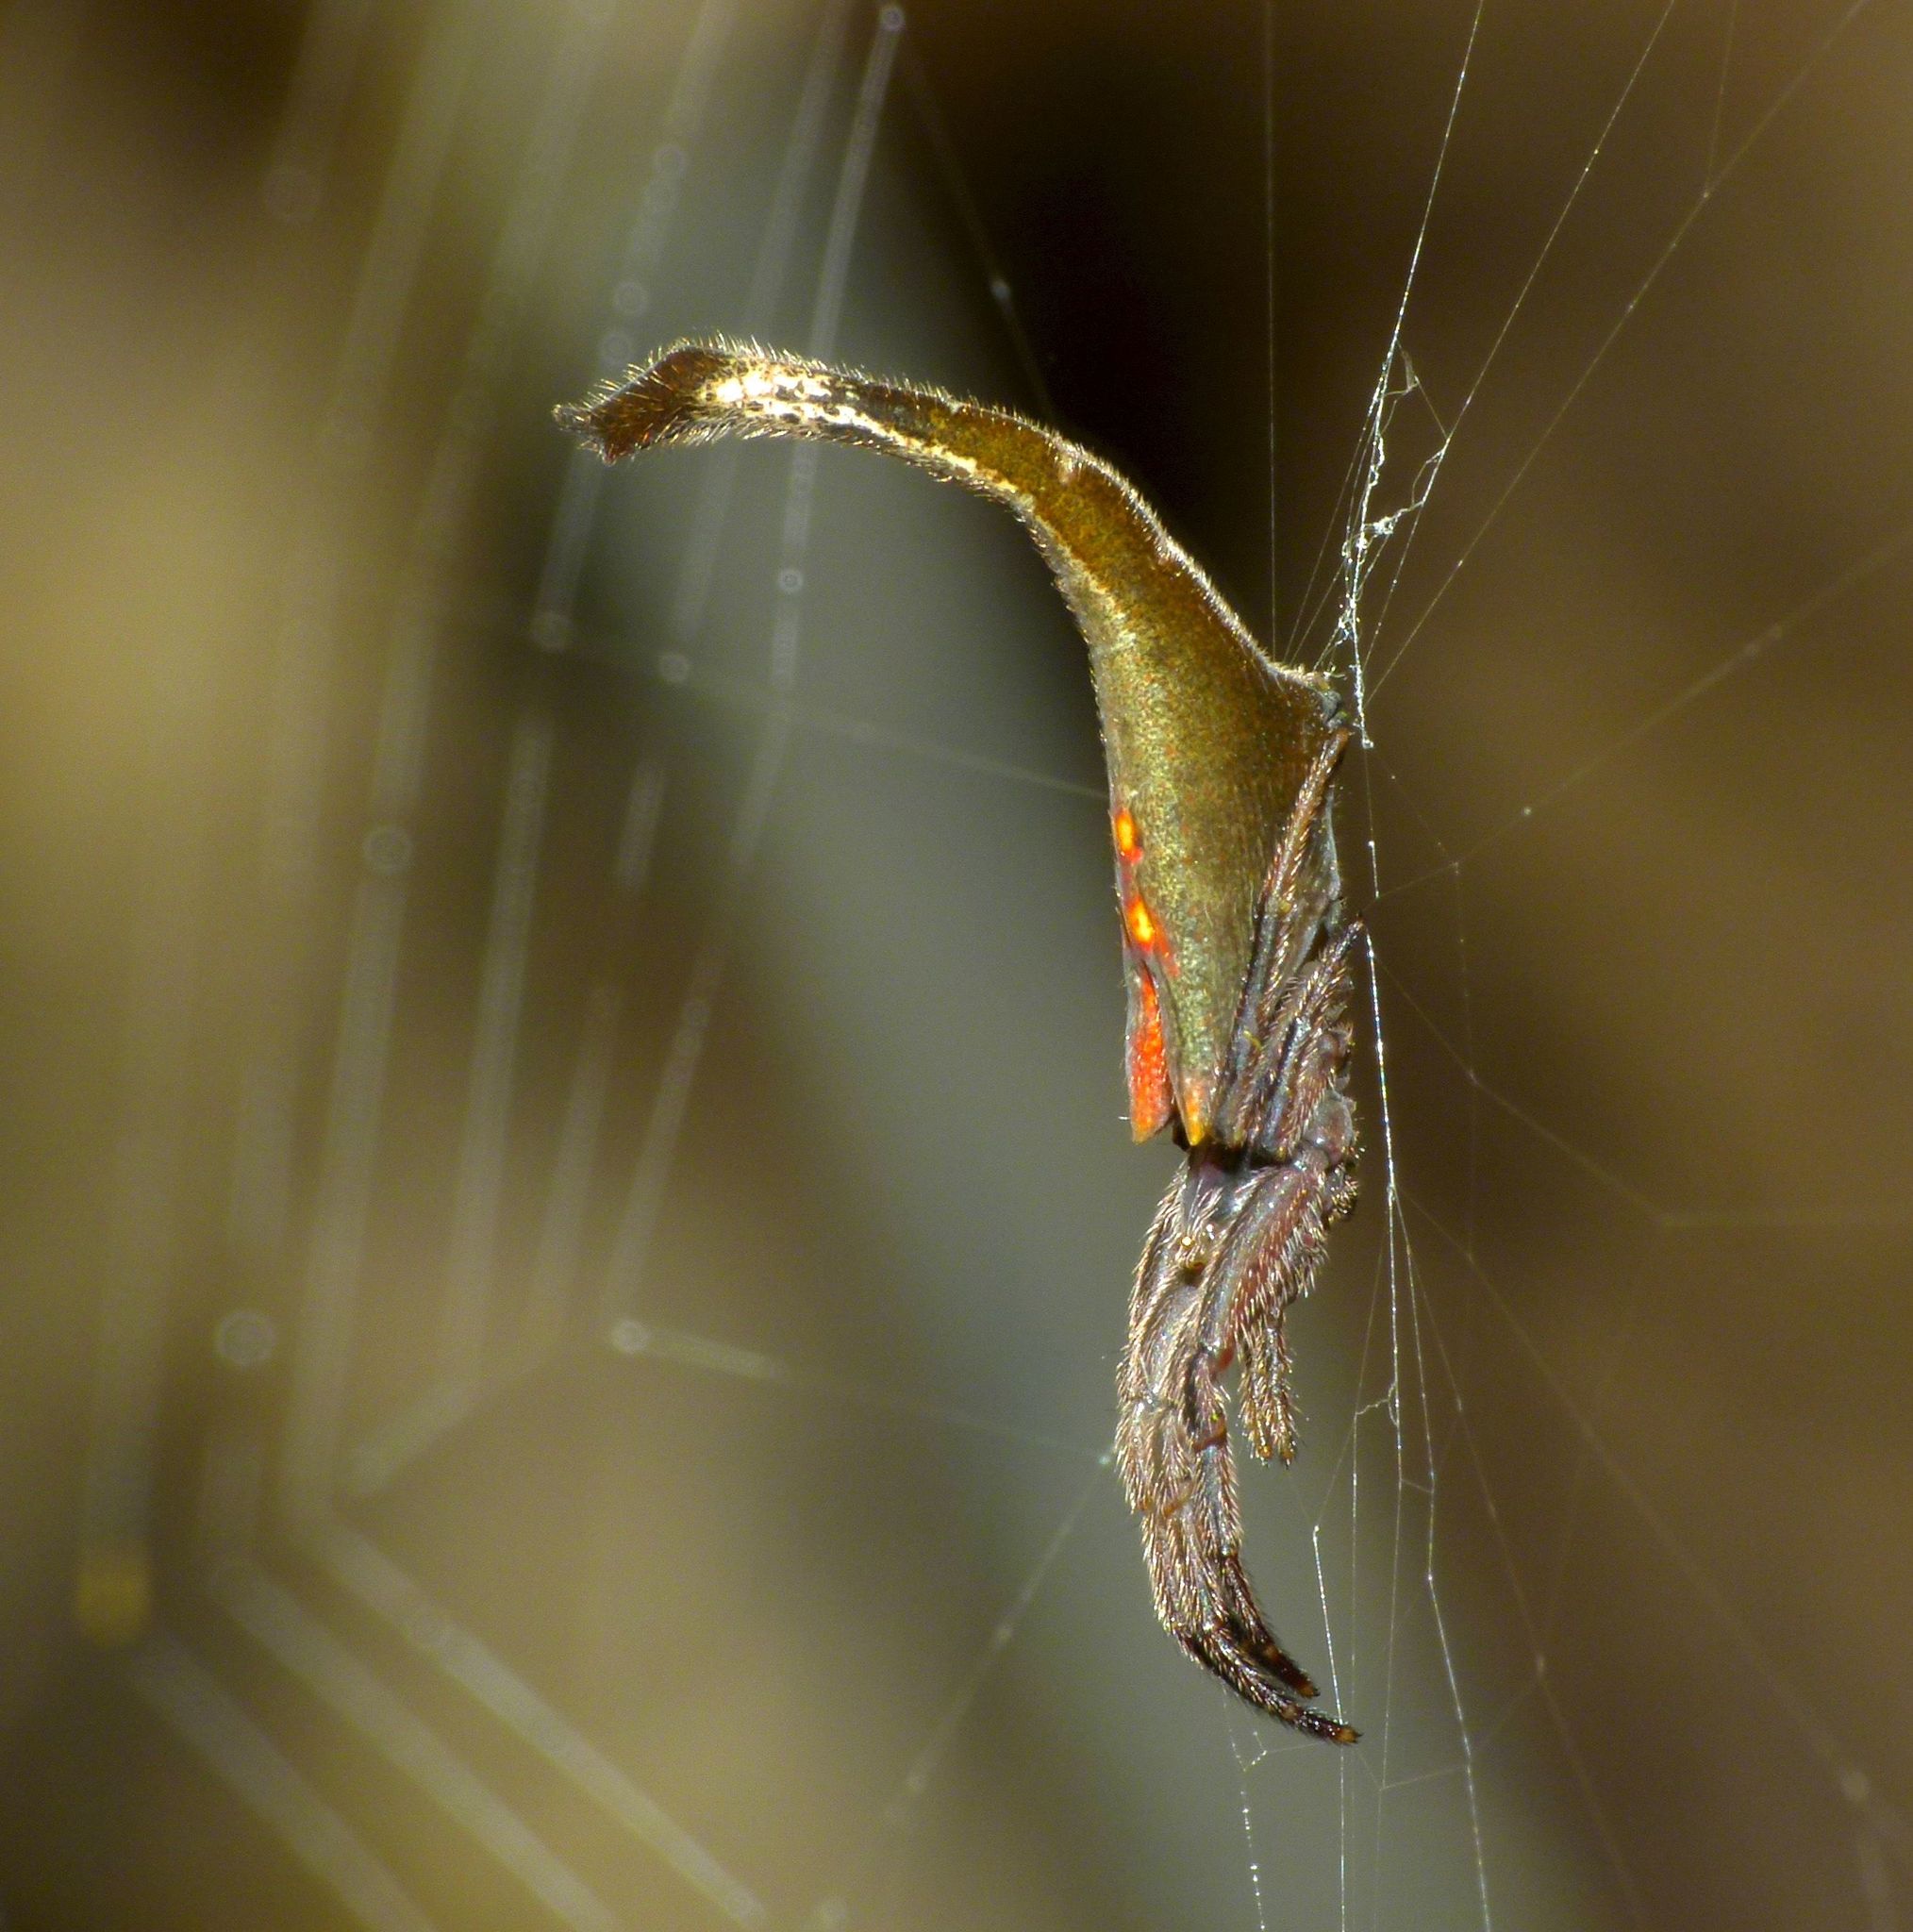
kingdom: Animalia
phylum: Arthropoda
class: Arachnida
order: Araneae
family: Araneidae
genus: Arachnura
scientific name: Arachnura feredayi
